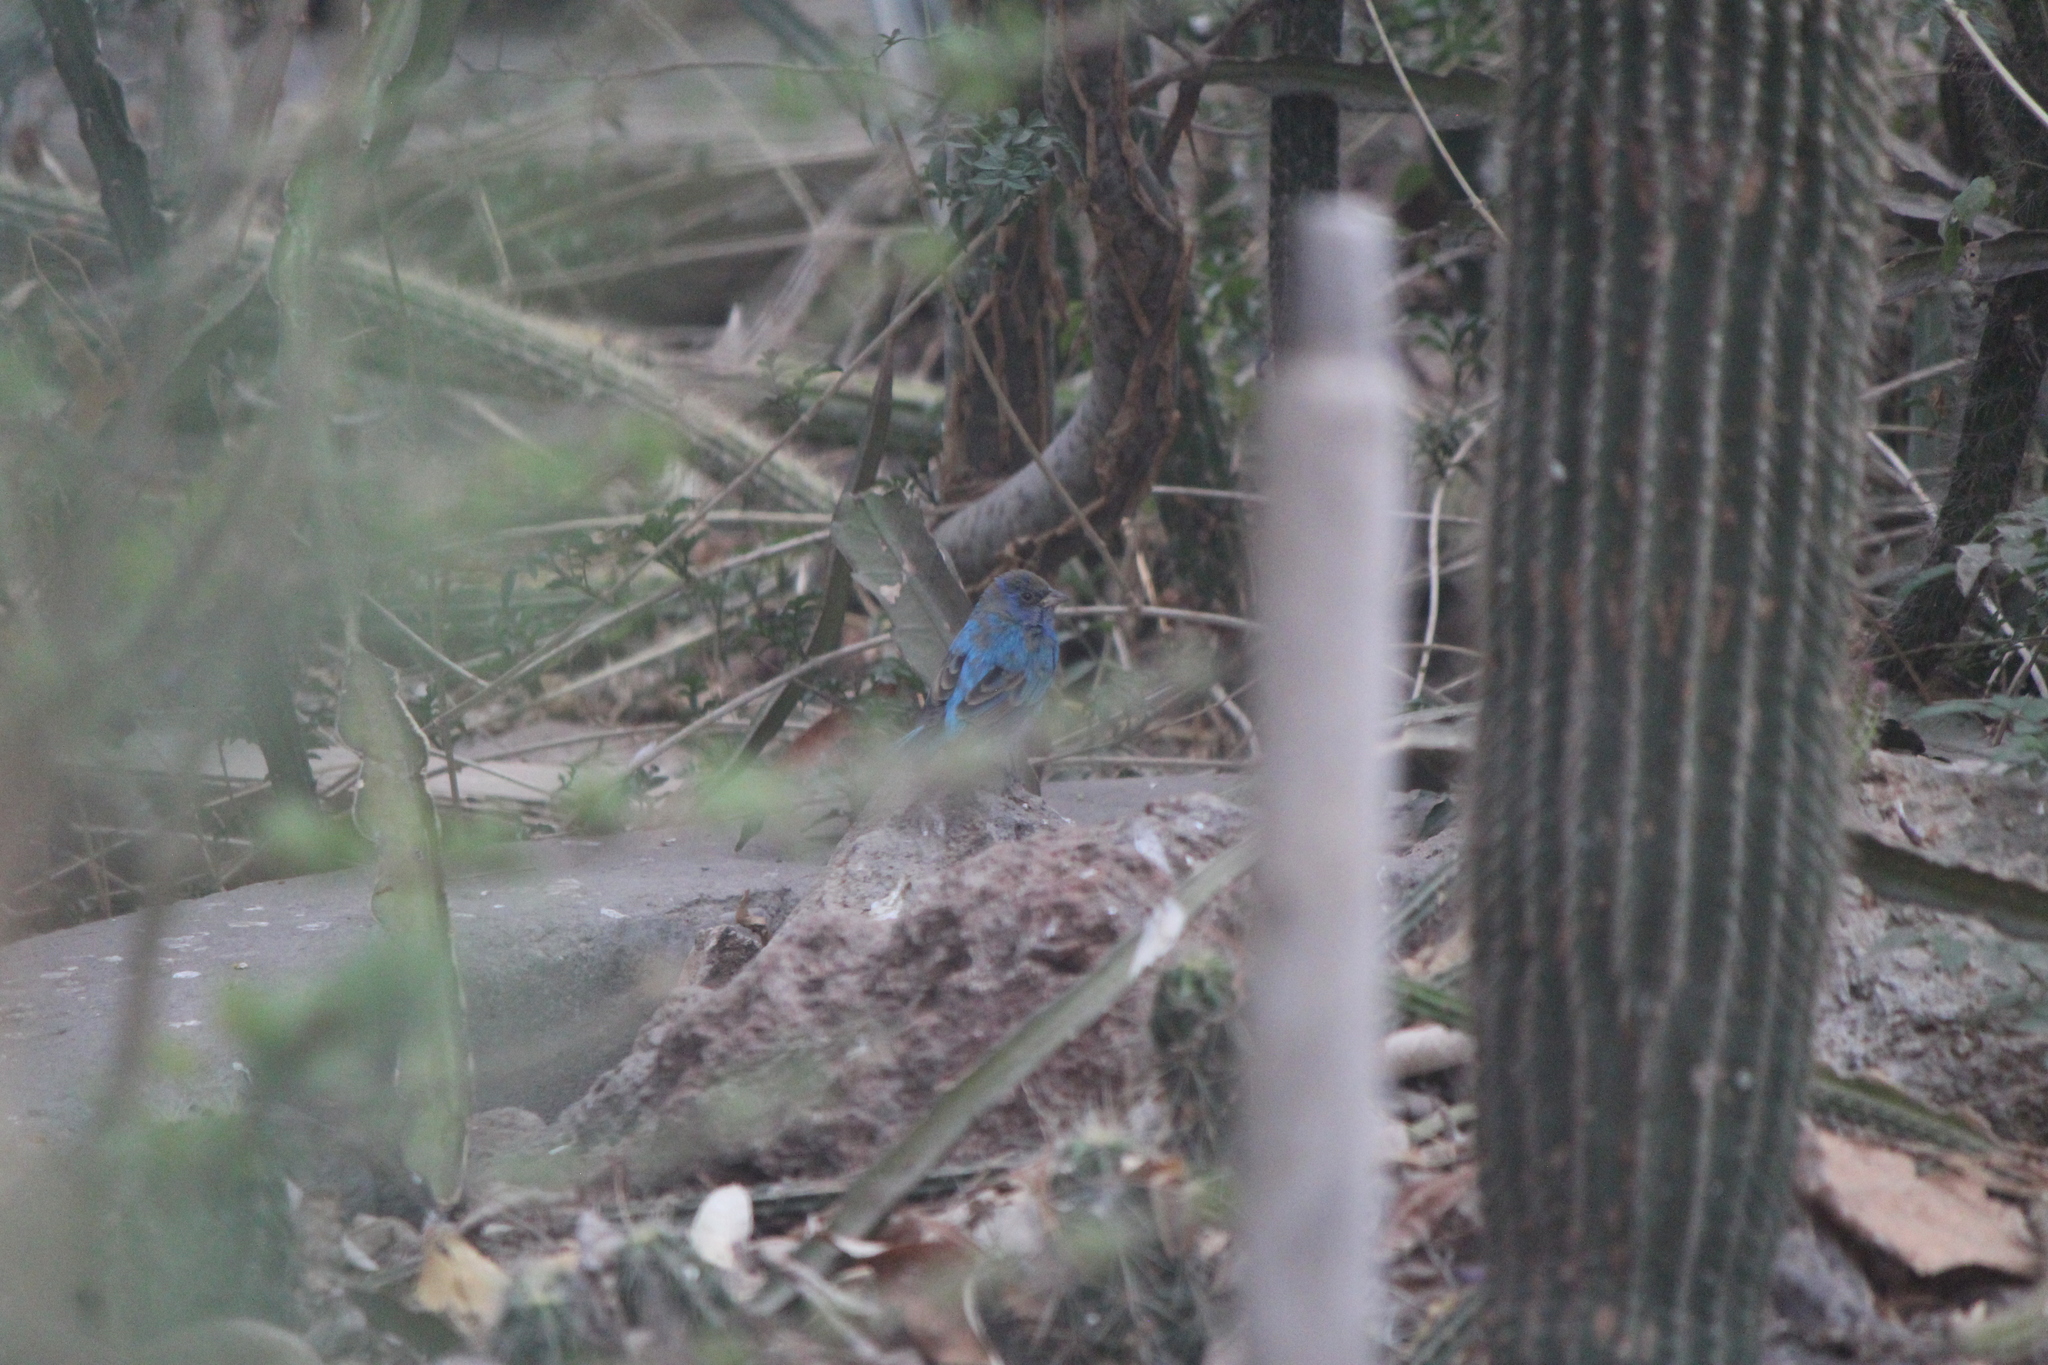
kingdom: Animalia
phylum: Chordata
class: Aves
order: Passeriformes
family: Cardinalidae
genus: Passerina
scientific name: Passerina cyanea
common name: Indigo bunting
